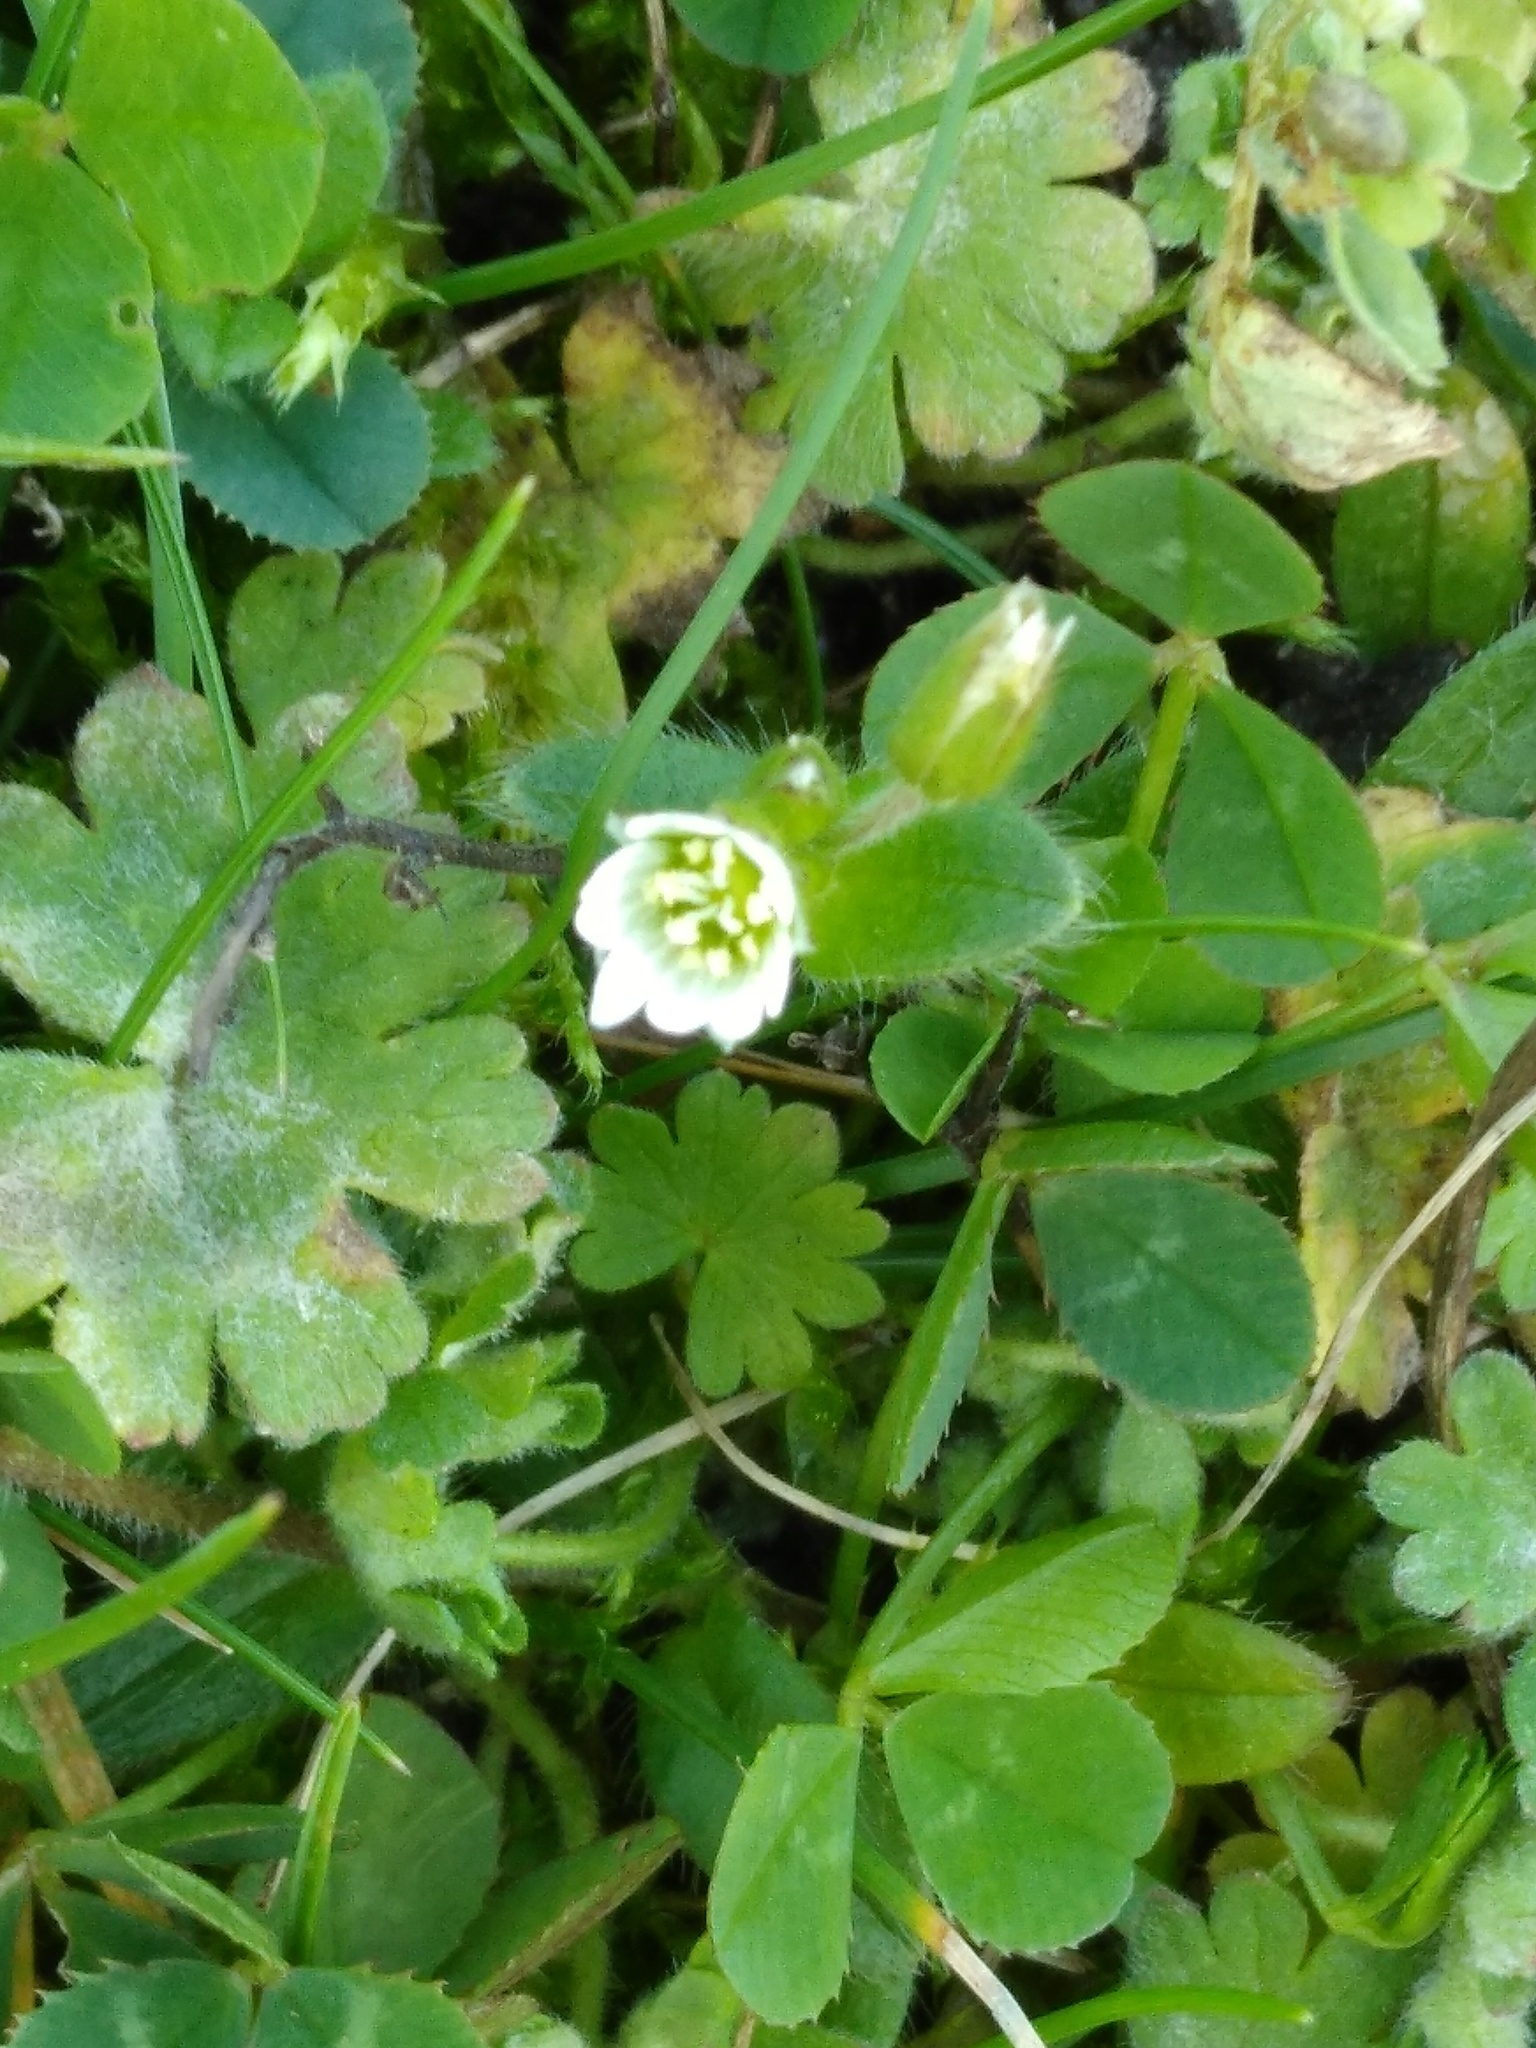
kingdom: Plantae
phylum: Tracheophyta
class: Magnoliopsida
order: Caryophyllales
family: Caryophyllaceae
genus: Cerastium
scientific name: Cerastium fontanum
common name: Common mouse-ear
